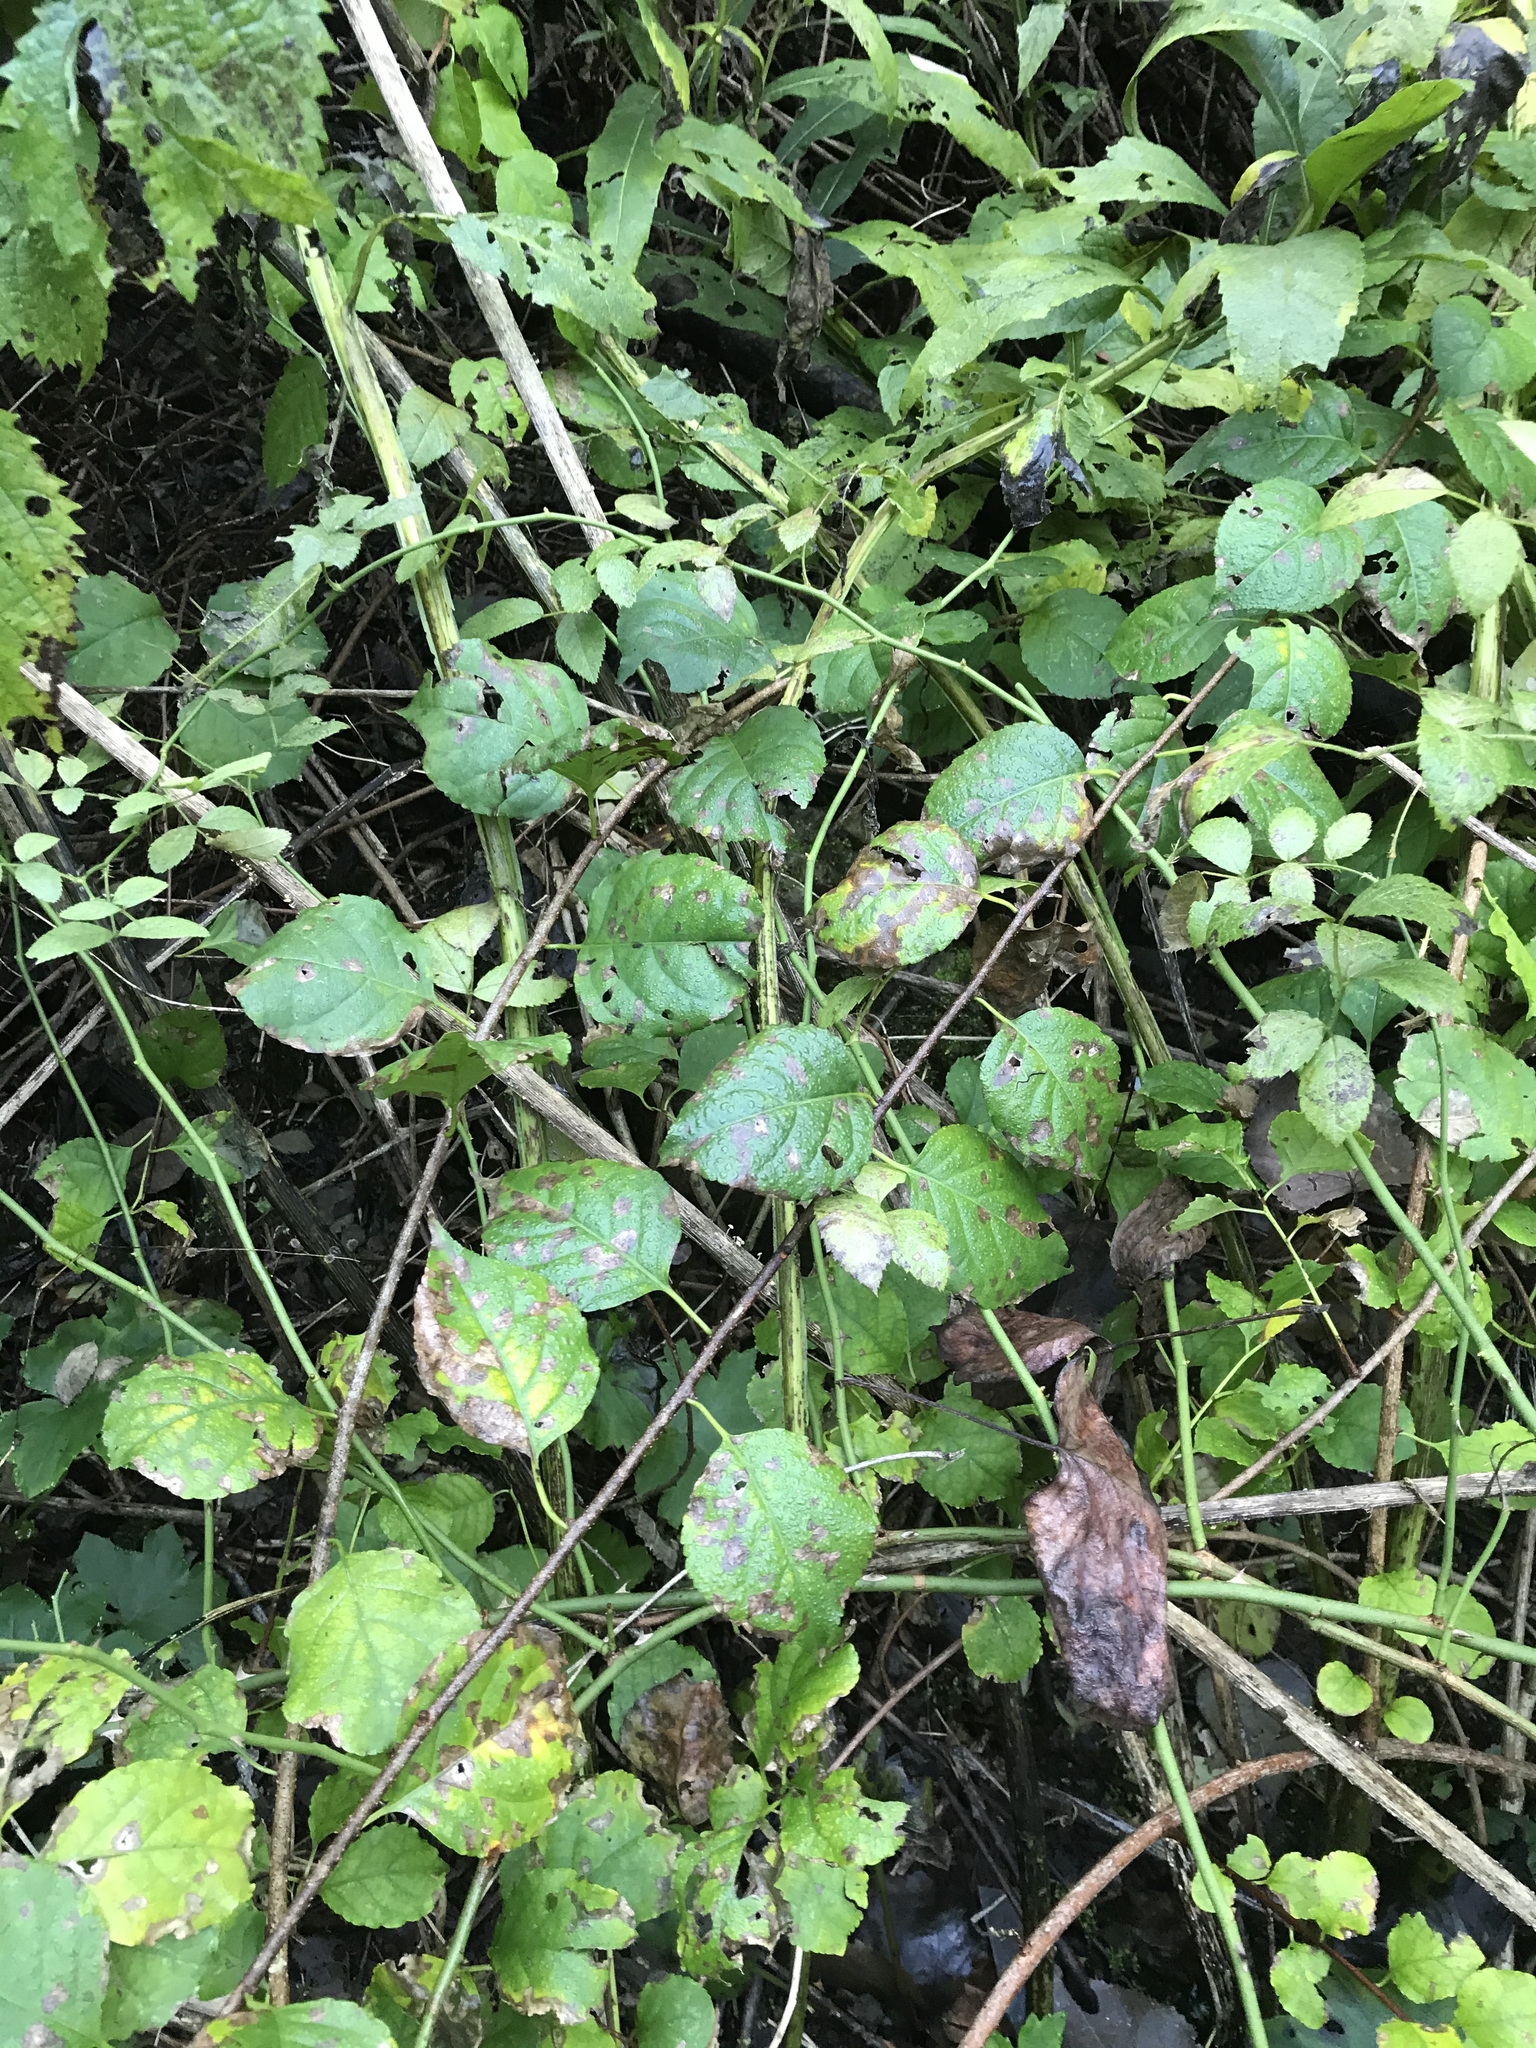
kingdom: Plantae
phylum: Tracheophyta
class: Magnoliopsida
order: Celastrales
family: Celastraceae
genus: Celastrus
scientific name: Celastrus orbiculatus
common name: Oriental bittersweet
